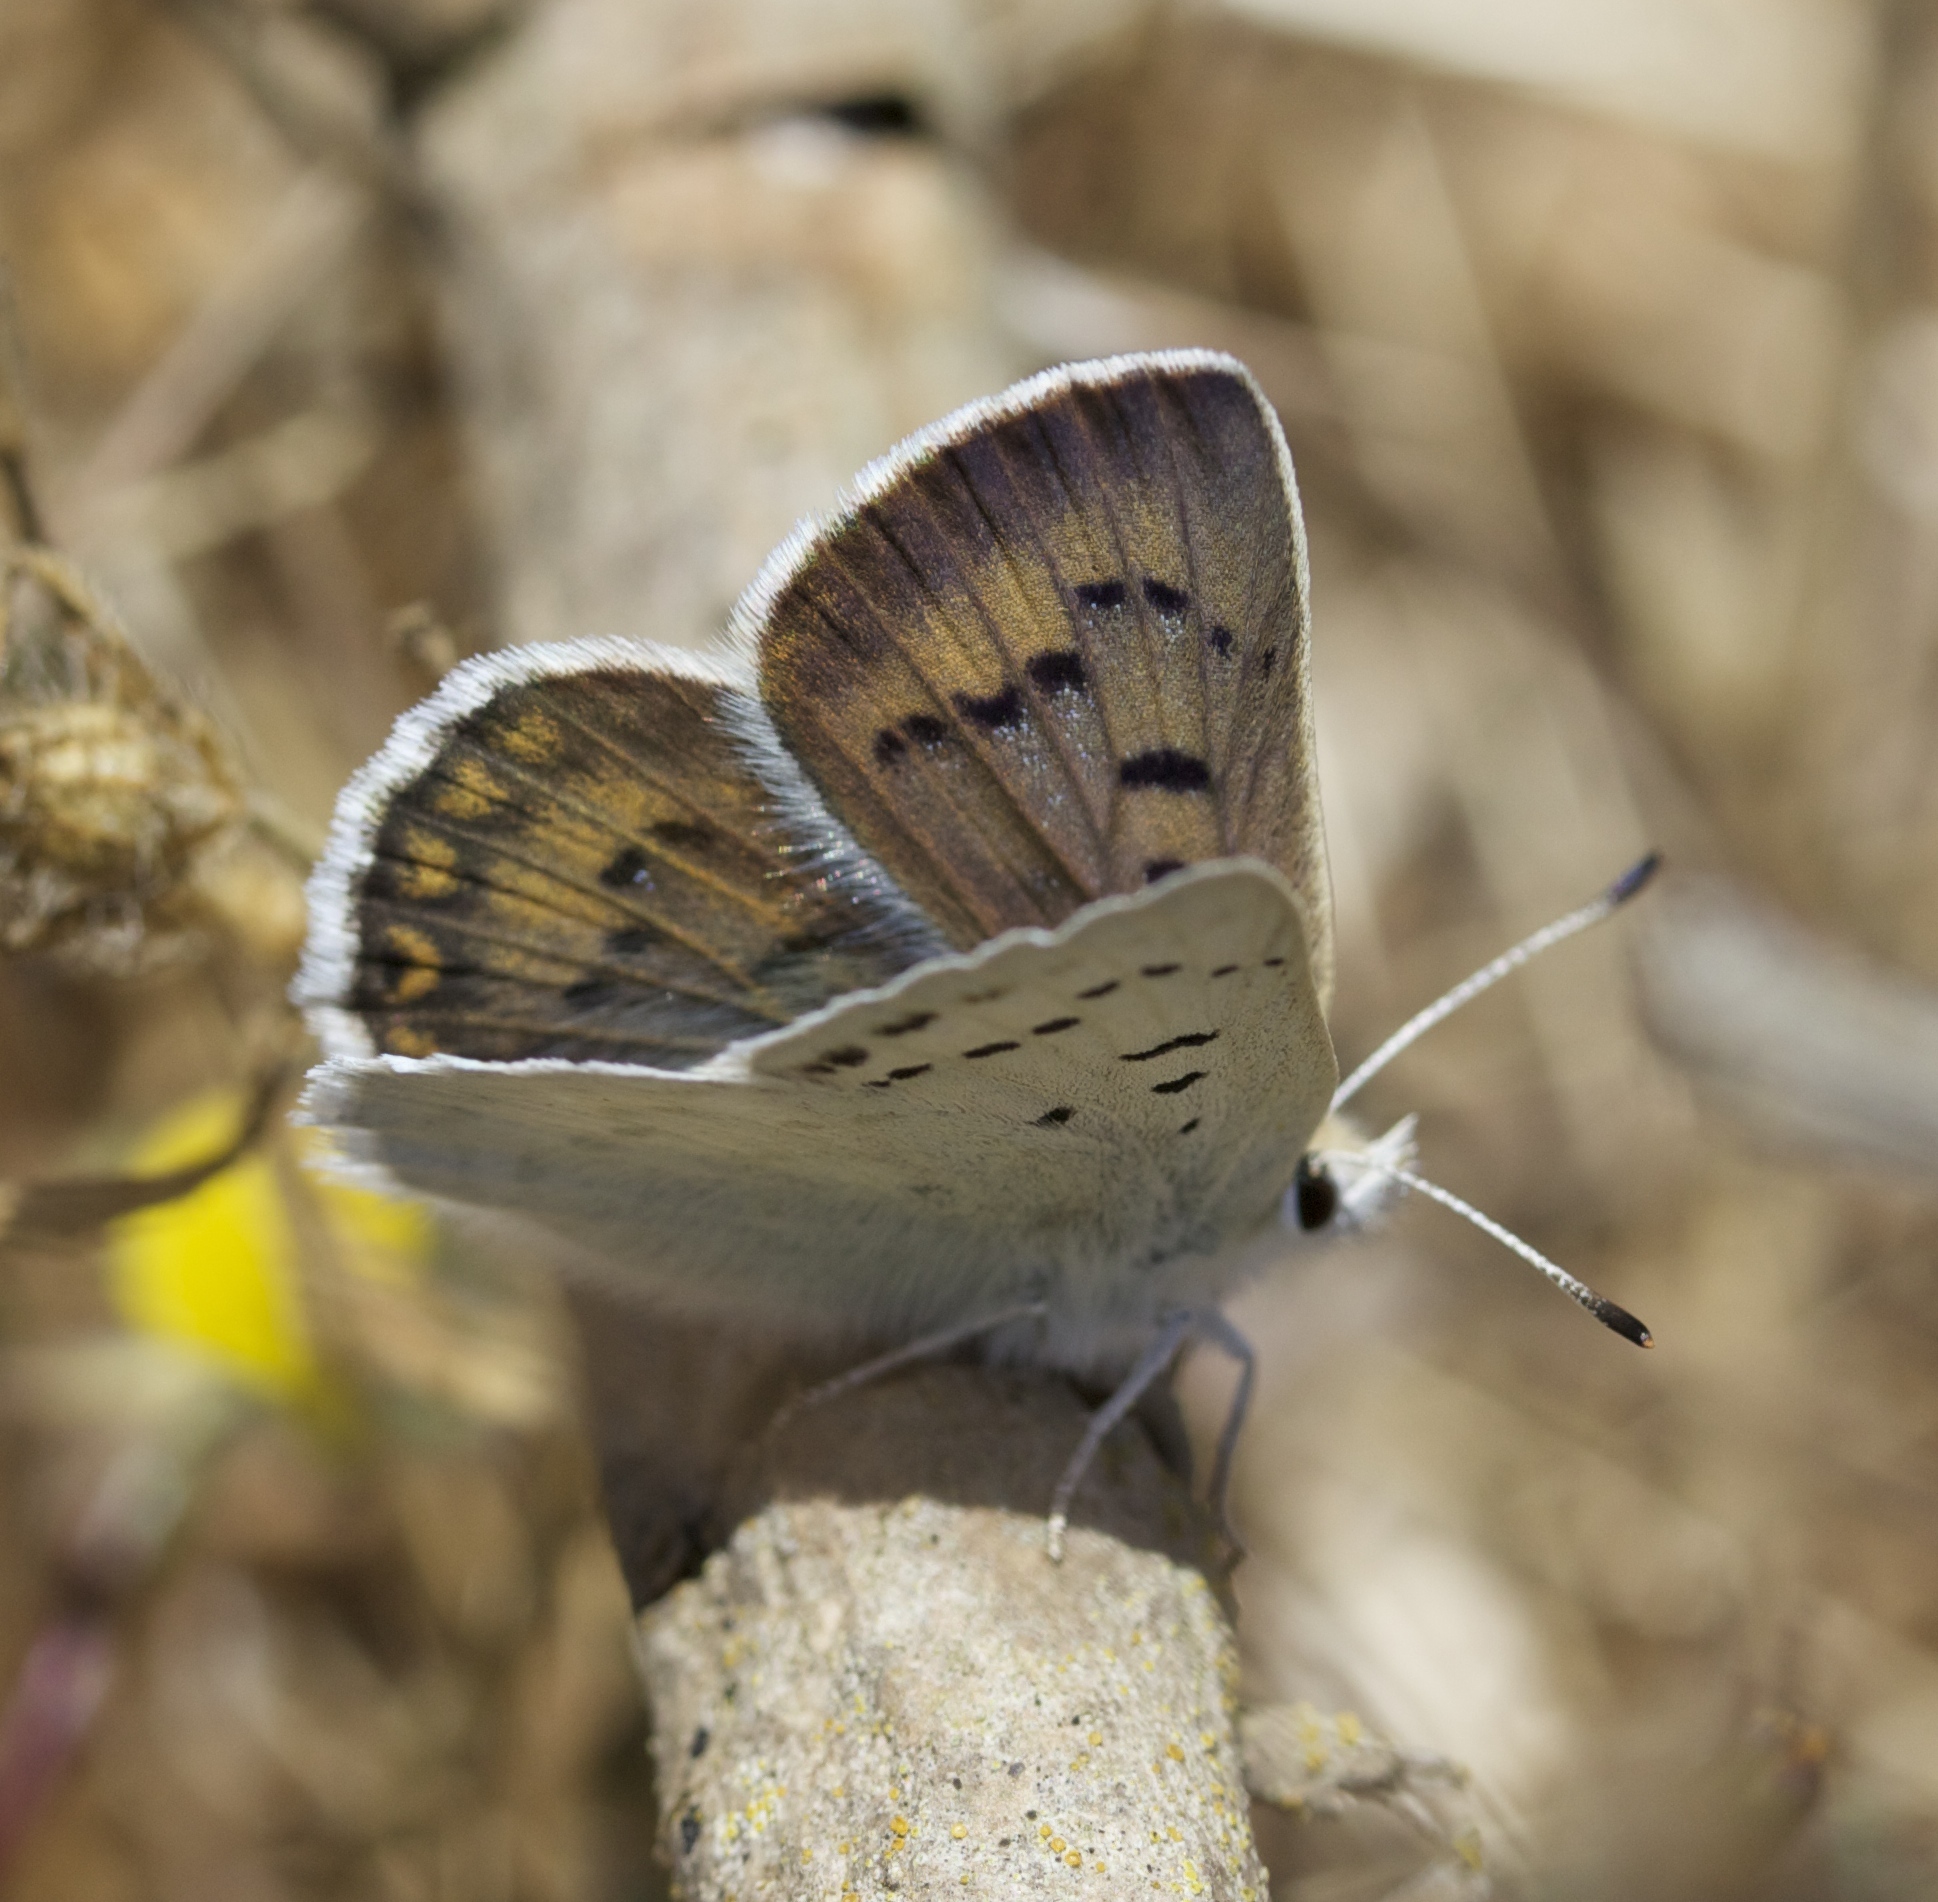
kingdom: Animalia
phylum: Arthropoda
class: Insecta
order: Lepidoptera
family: Lycaenidae
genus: Tharsalea
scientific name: Tharsalea heteronea
